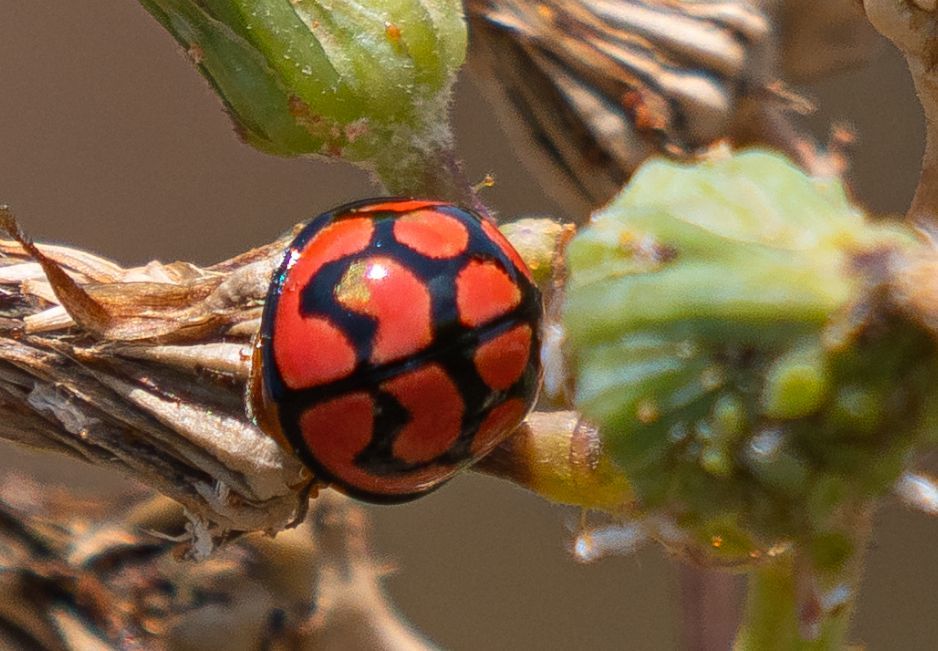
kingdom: Animalia
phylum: Arthropoda
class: Insecta
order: Coleoptera
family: Coccinellidae
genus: Cheilomenes
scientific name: Cheilomenes lunata
